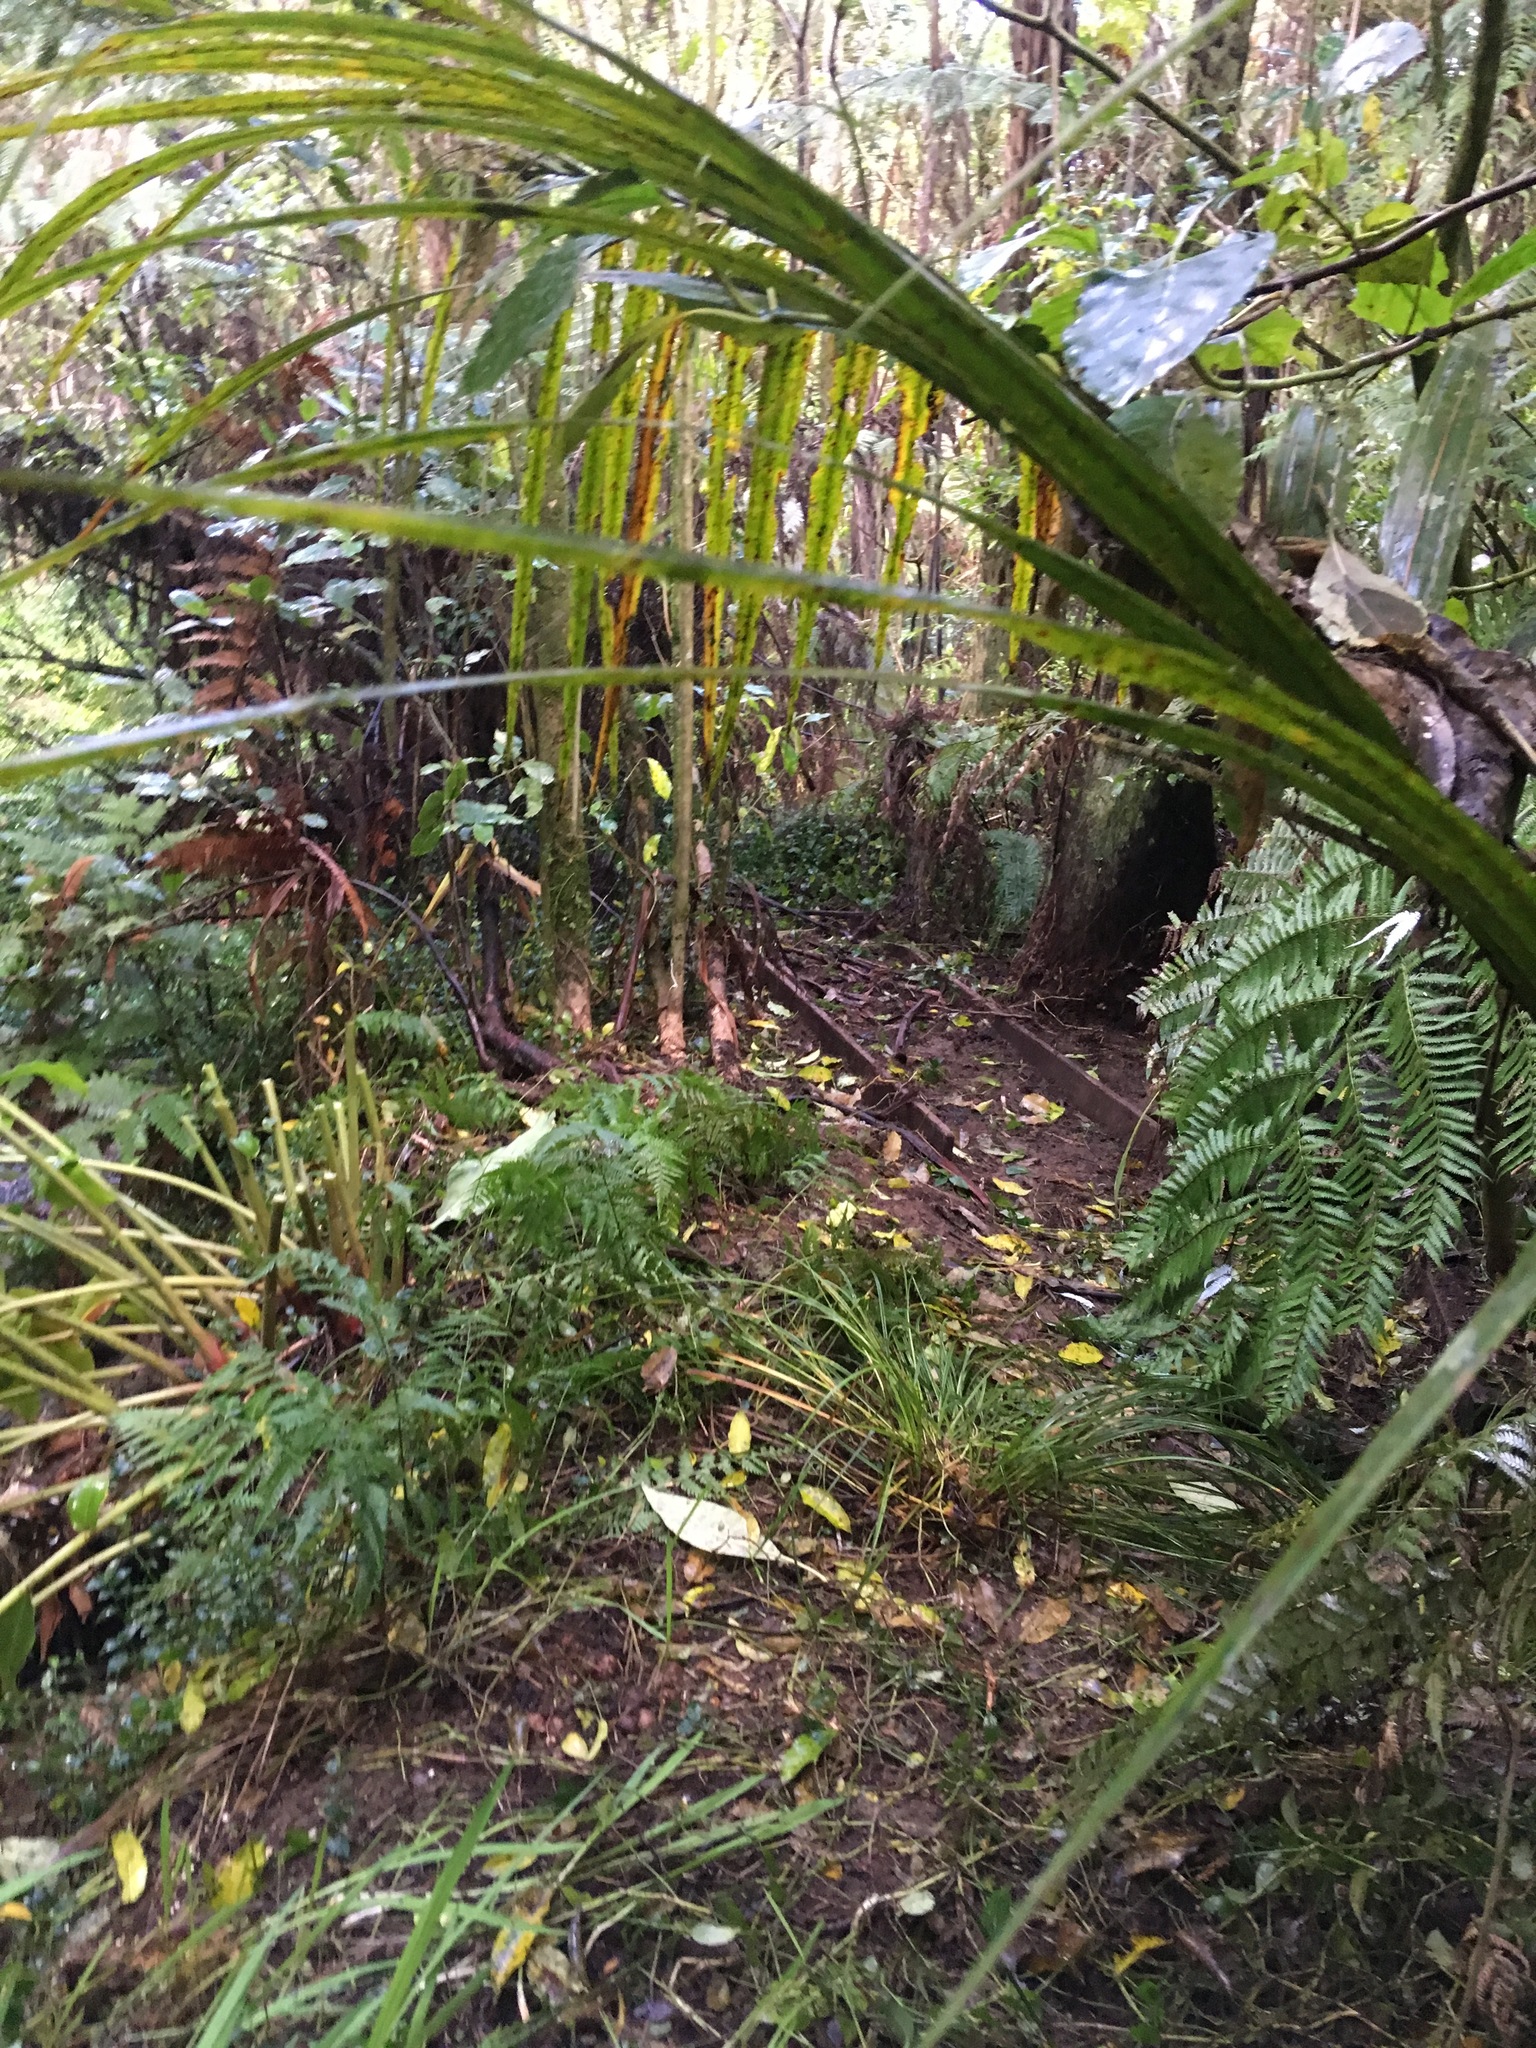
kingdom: Plantae
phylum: Tracheophyta
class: Liliopsida
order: Zingiberales
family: Zingiberaceae
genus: Hedychium
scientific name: Hedychium gardnerianum
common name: Himalayan ginger
